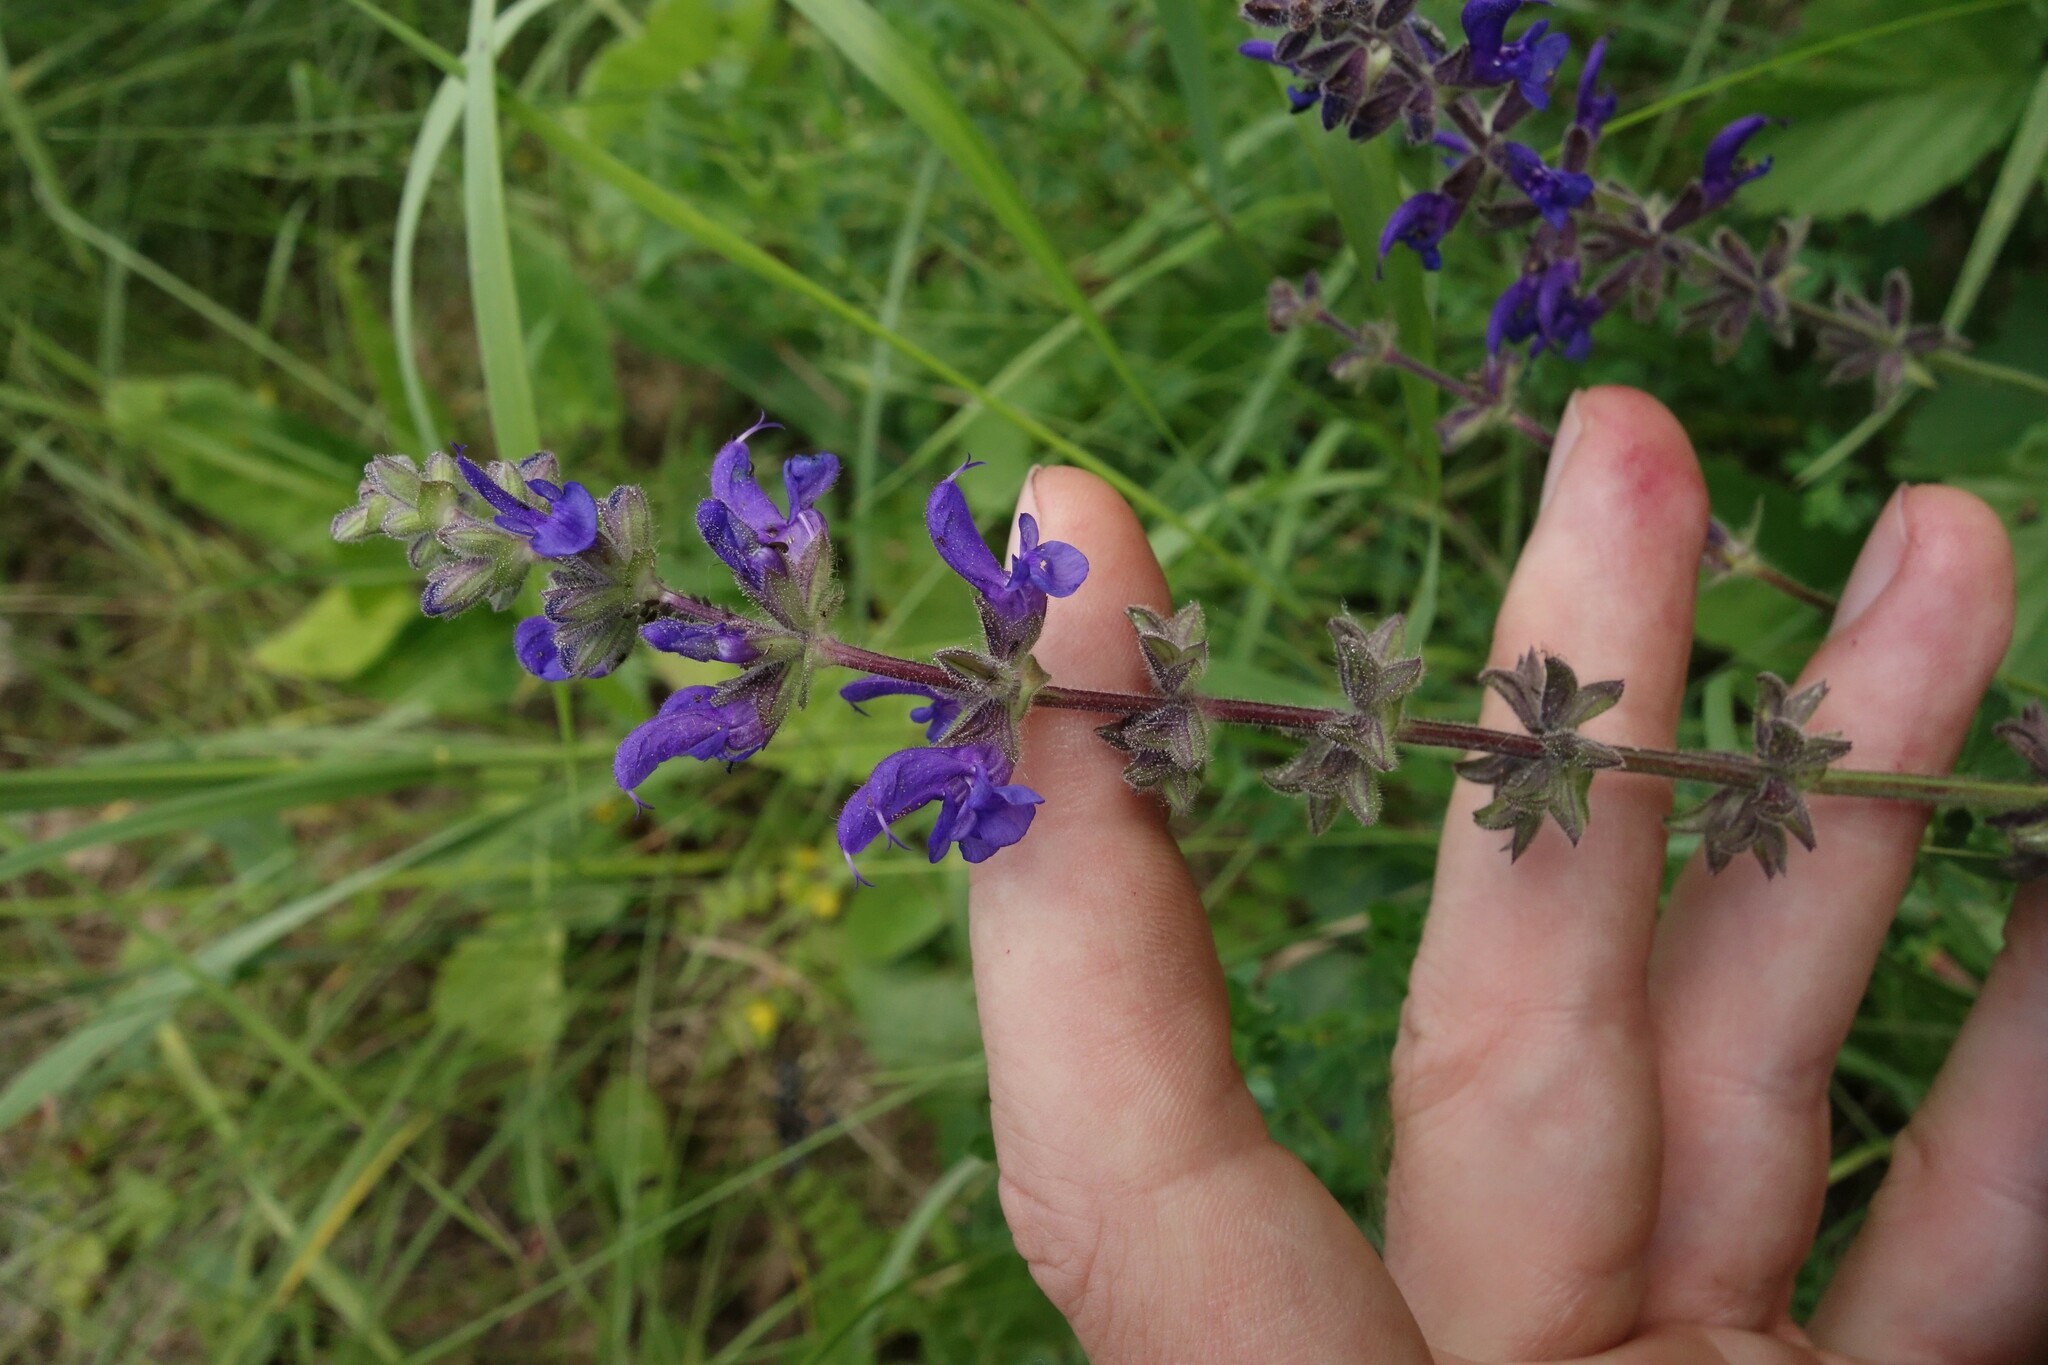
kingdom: Plantae
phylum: Tracheophyta
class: Magnoliopsida
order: Lamiales
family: Lamiaceae
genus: Salvia
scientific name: Salvia dumetorum
